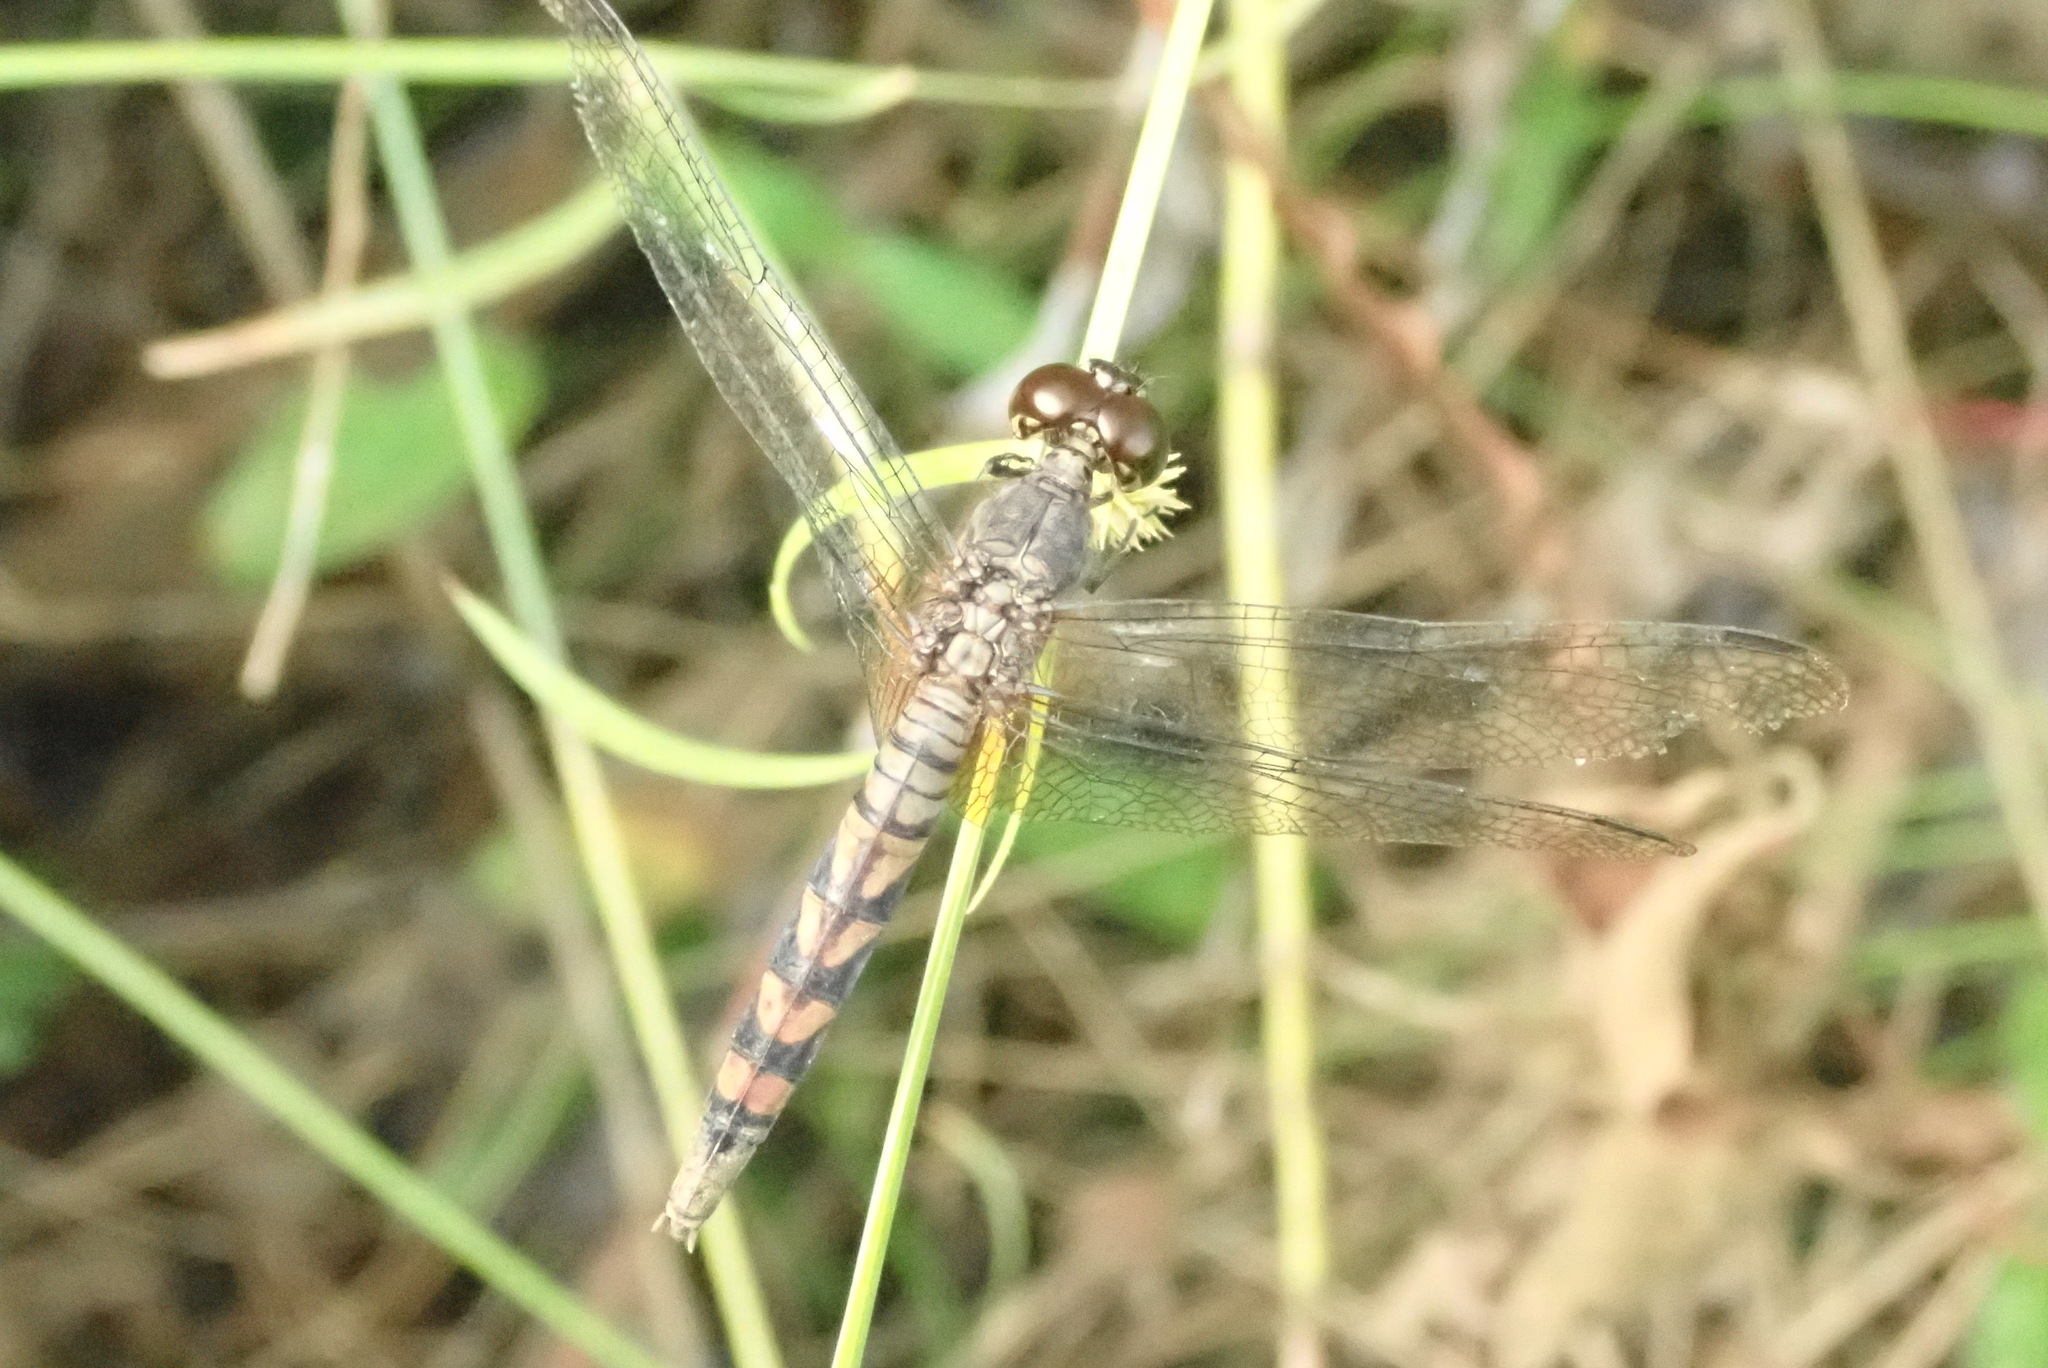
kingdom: Animalia
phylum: Arthropoda
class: Insecta
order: Odonata
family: Libellulidae
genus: Erythrodiplax
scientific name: Erythrodiplax unimaculata
